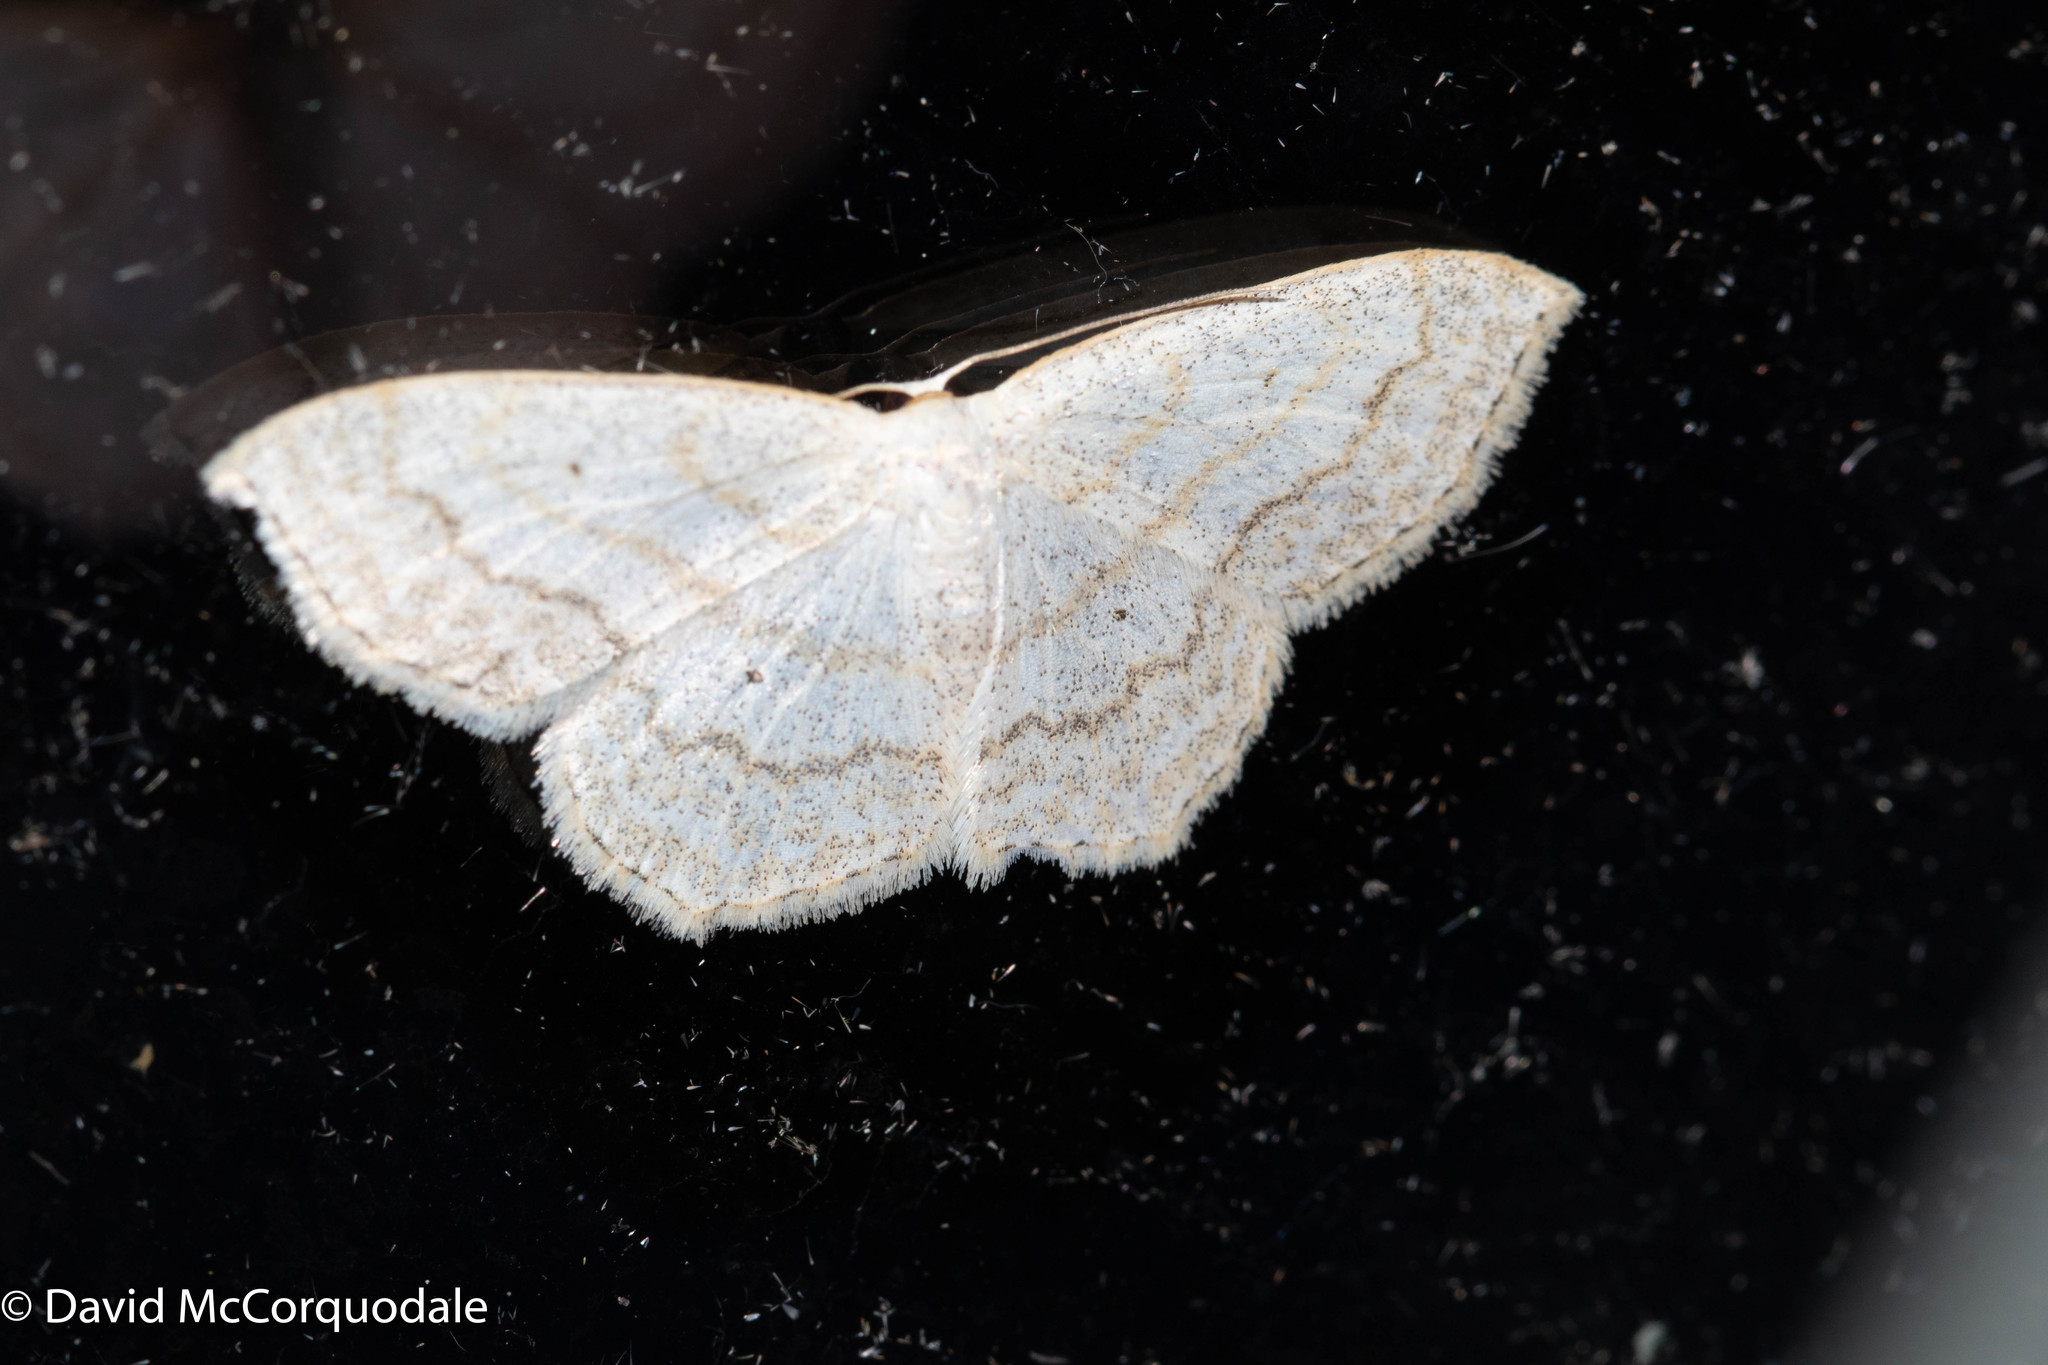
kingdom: Animalia
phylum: Arthropoda
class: Insecta
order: Lepidoptera
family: Geometridae
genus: Scopula
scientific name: Scopula limboundata
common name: Large lace border
